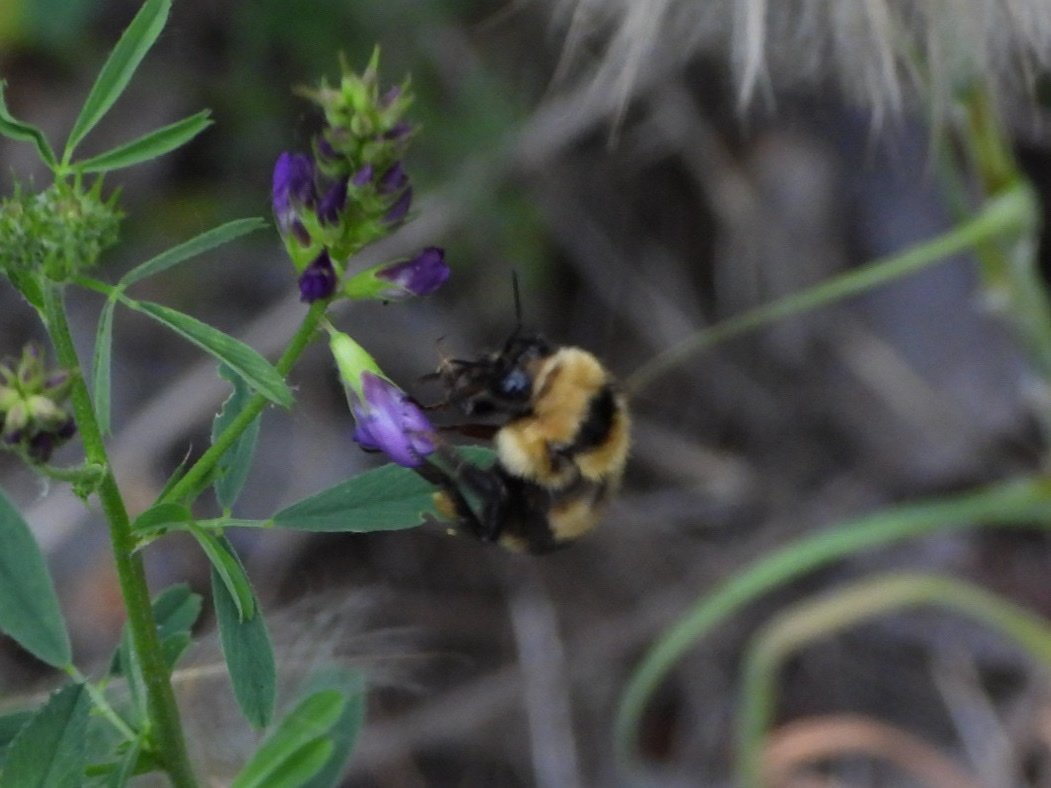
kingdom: Animalia
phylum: Arthropoda
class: Insecta
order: Hymenoptera
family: Apidae
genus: Bombus
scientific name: Bombus rufocinctus
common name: Red-belted bumble bee
